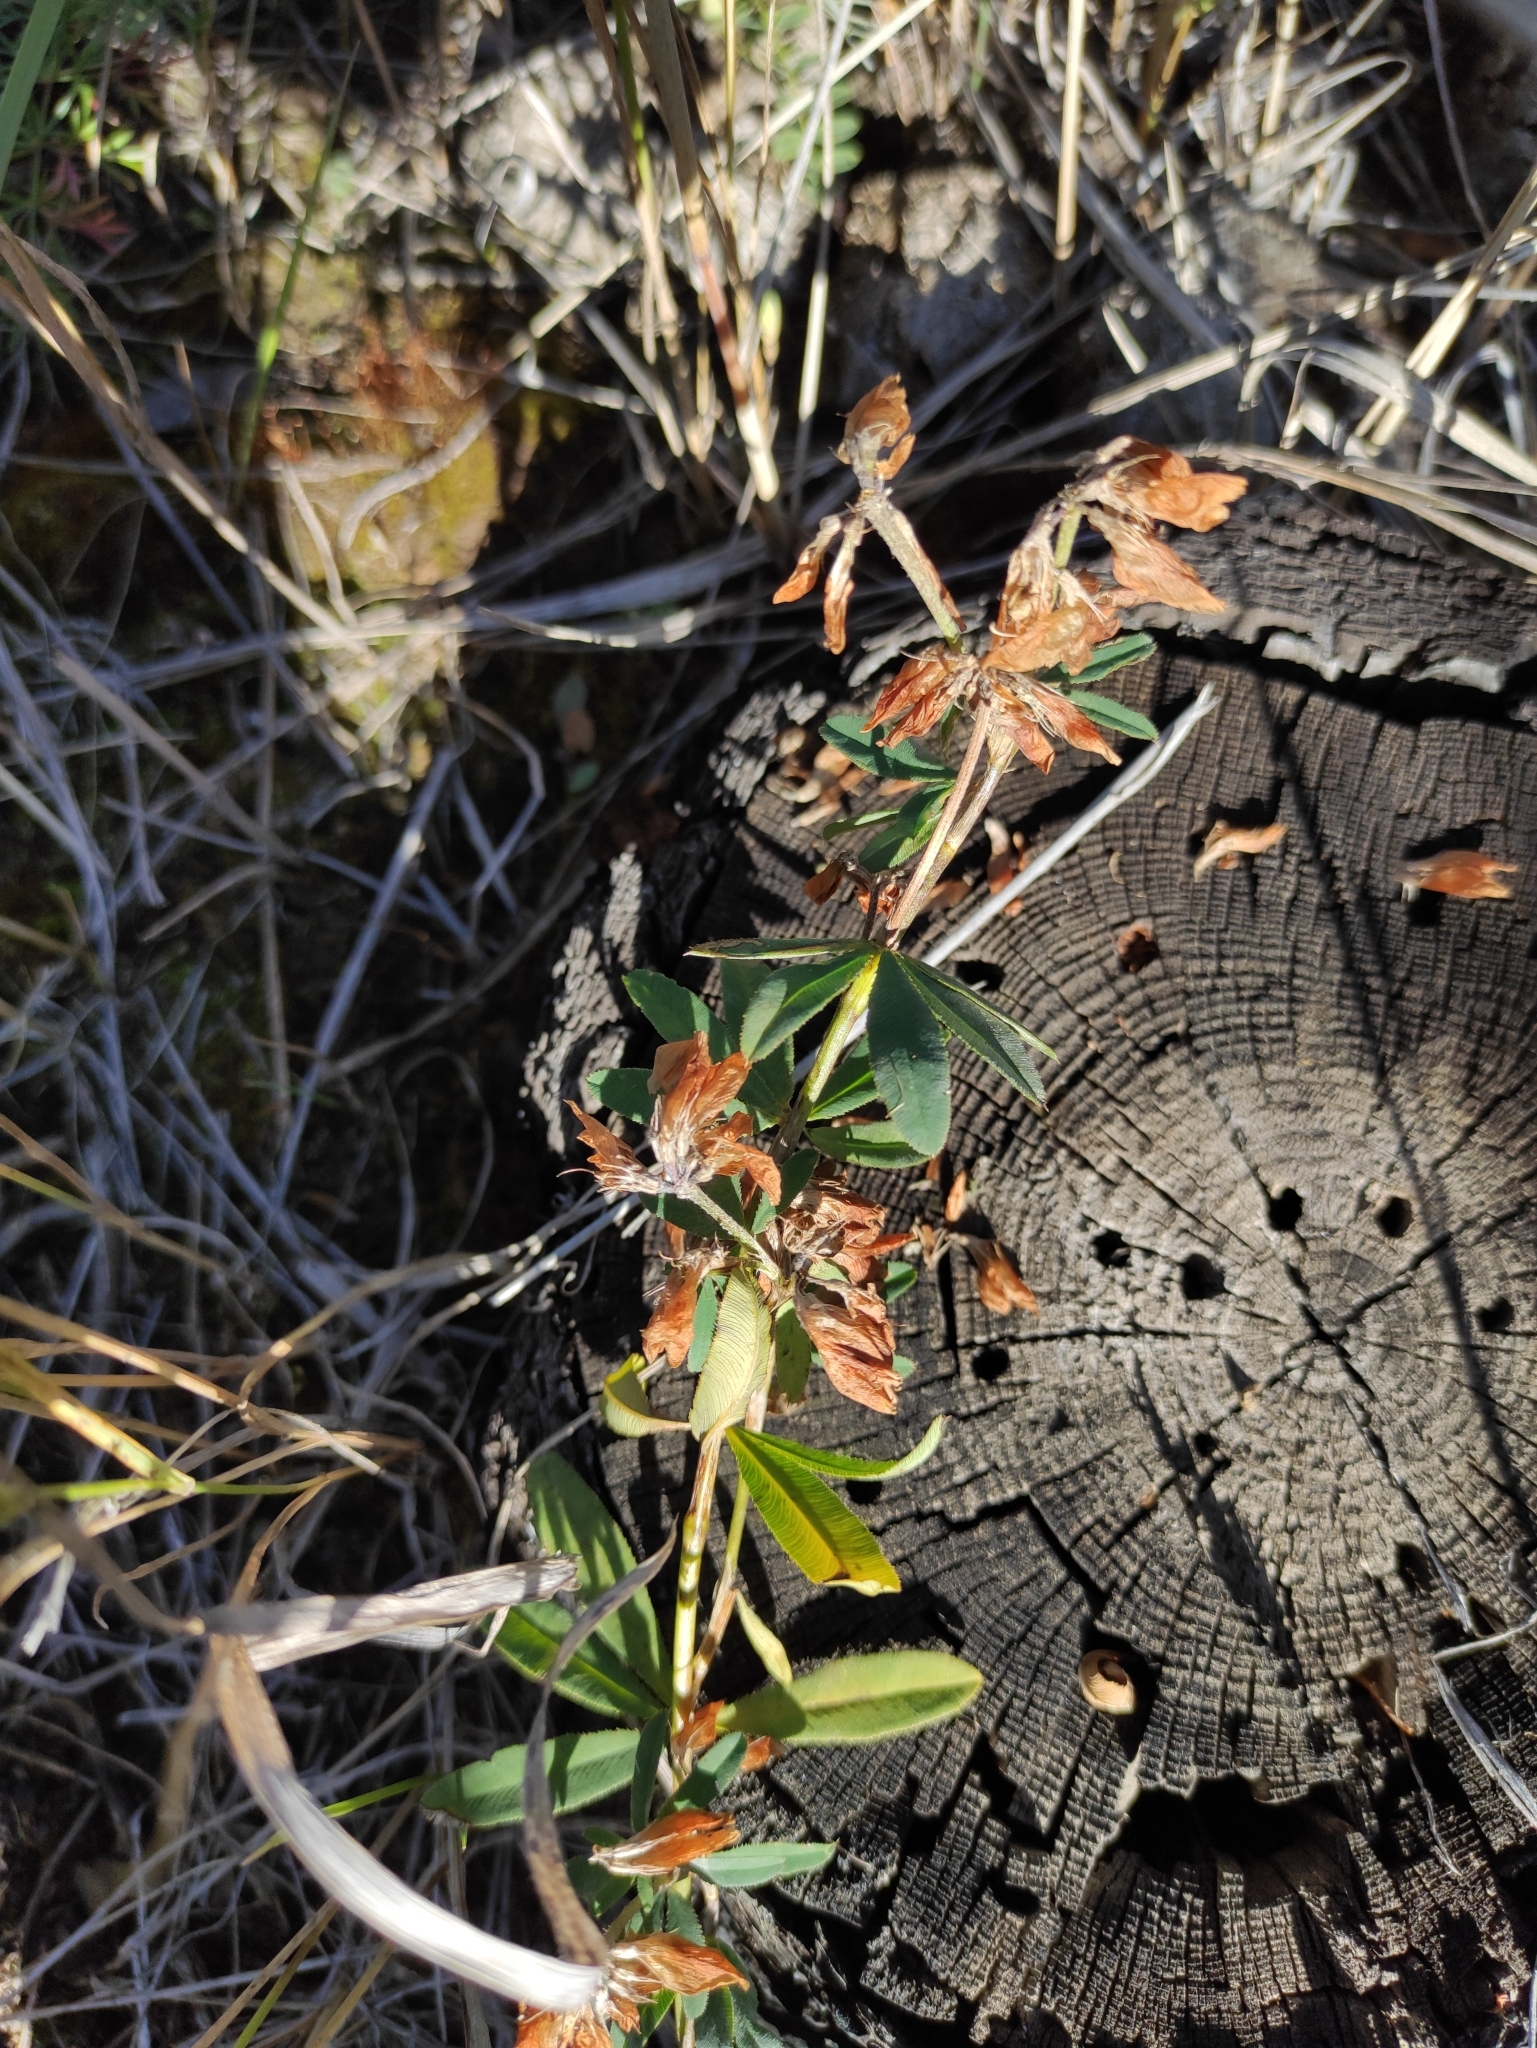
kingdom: Plantae
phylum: Tracheophyta
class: Magnoliopsida
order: Fabales
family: Fabaceae
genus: Trifolium
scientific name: Trifolium lupinaster
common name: Lupine clover
